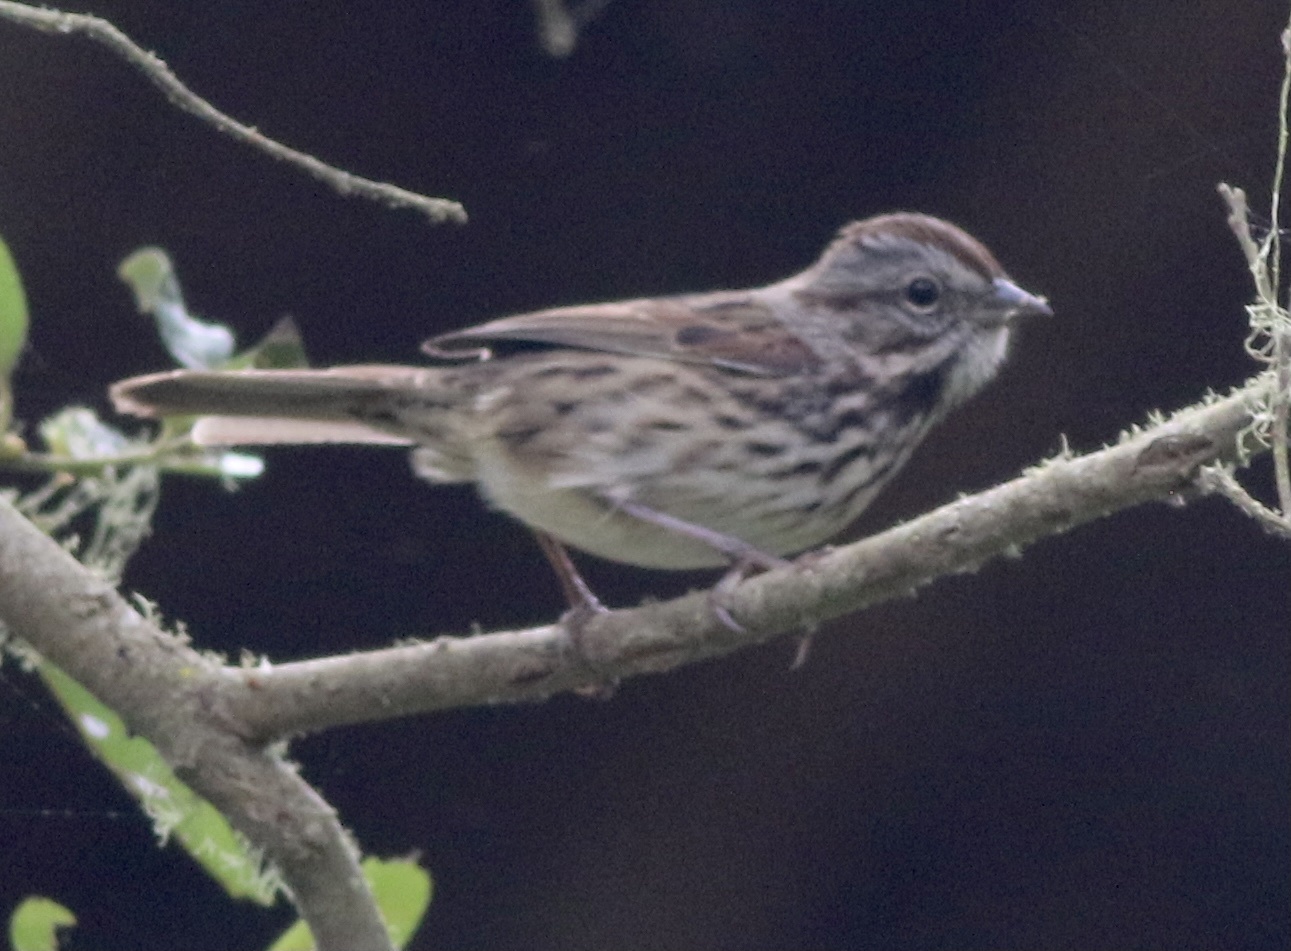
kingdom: Animalia
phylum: Chordata
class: Aves
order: Passeriformes
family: Passerellidae
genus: Melospiza
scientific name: Melospiza melodia
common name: Song sparrow
